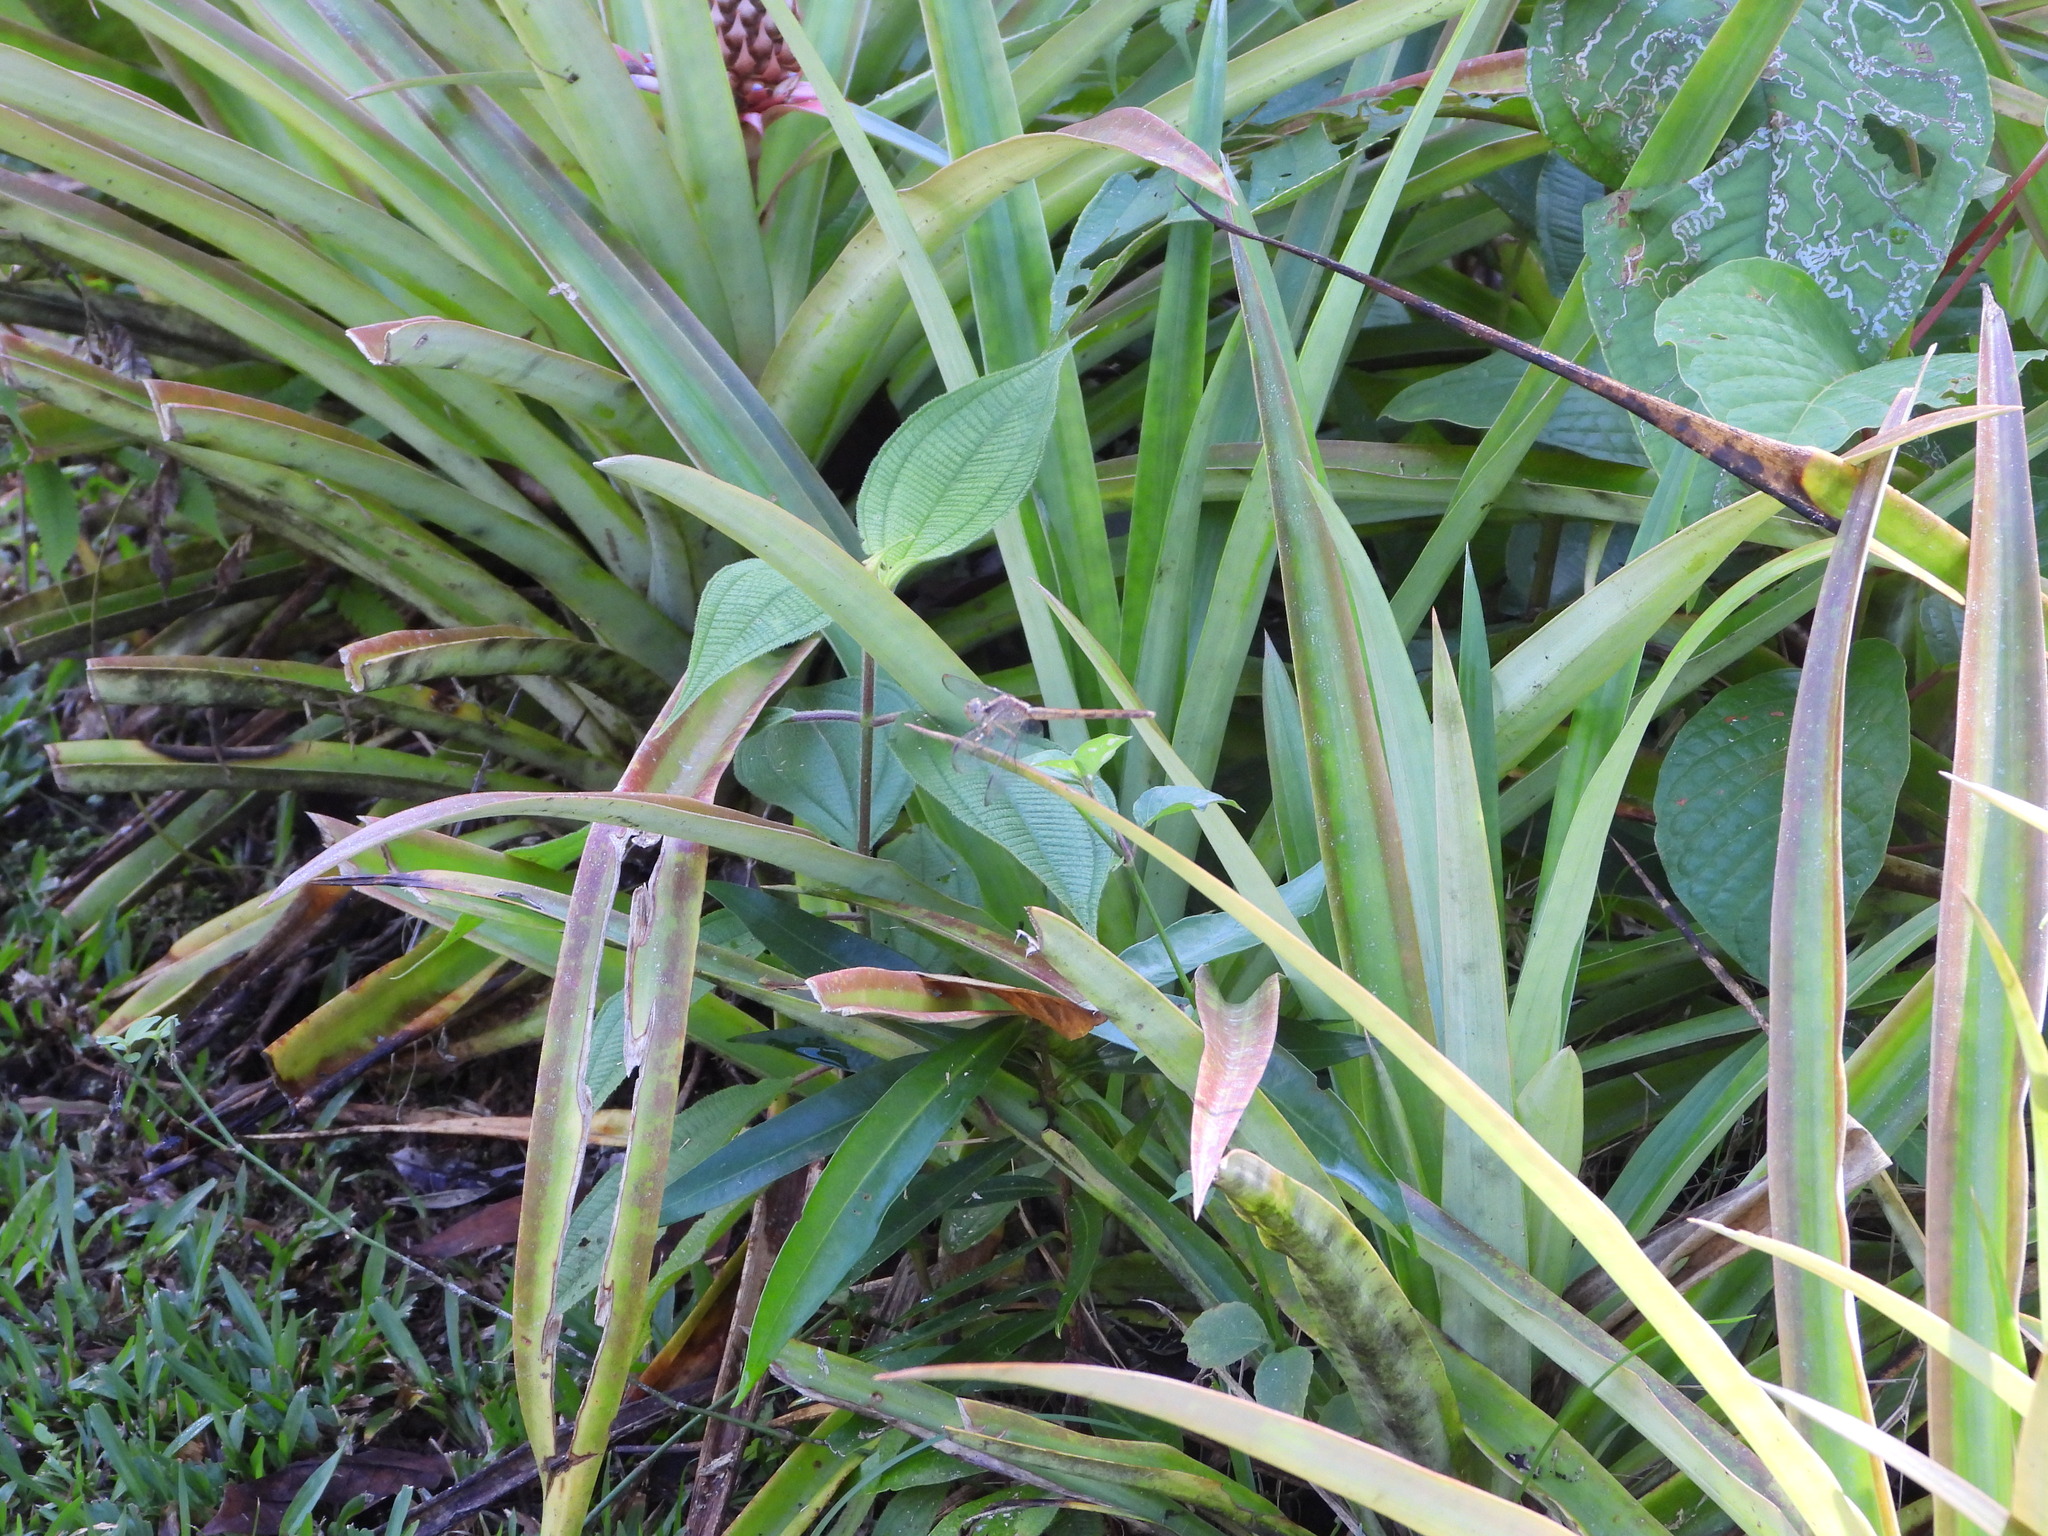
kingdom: Animalia
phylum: Arthropoda
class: Insecta
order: Odonata
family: Libellulidae
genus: Erythrodiplax
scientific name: Erythrodiplax funerea
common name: Black-winged dragonlet
